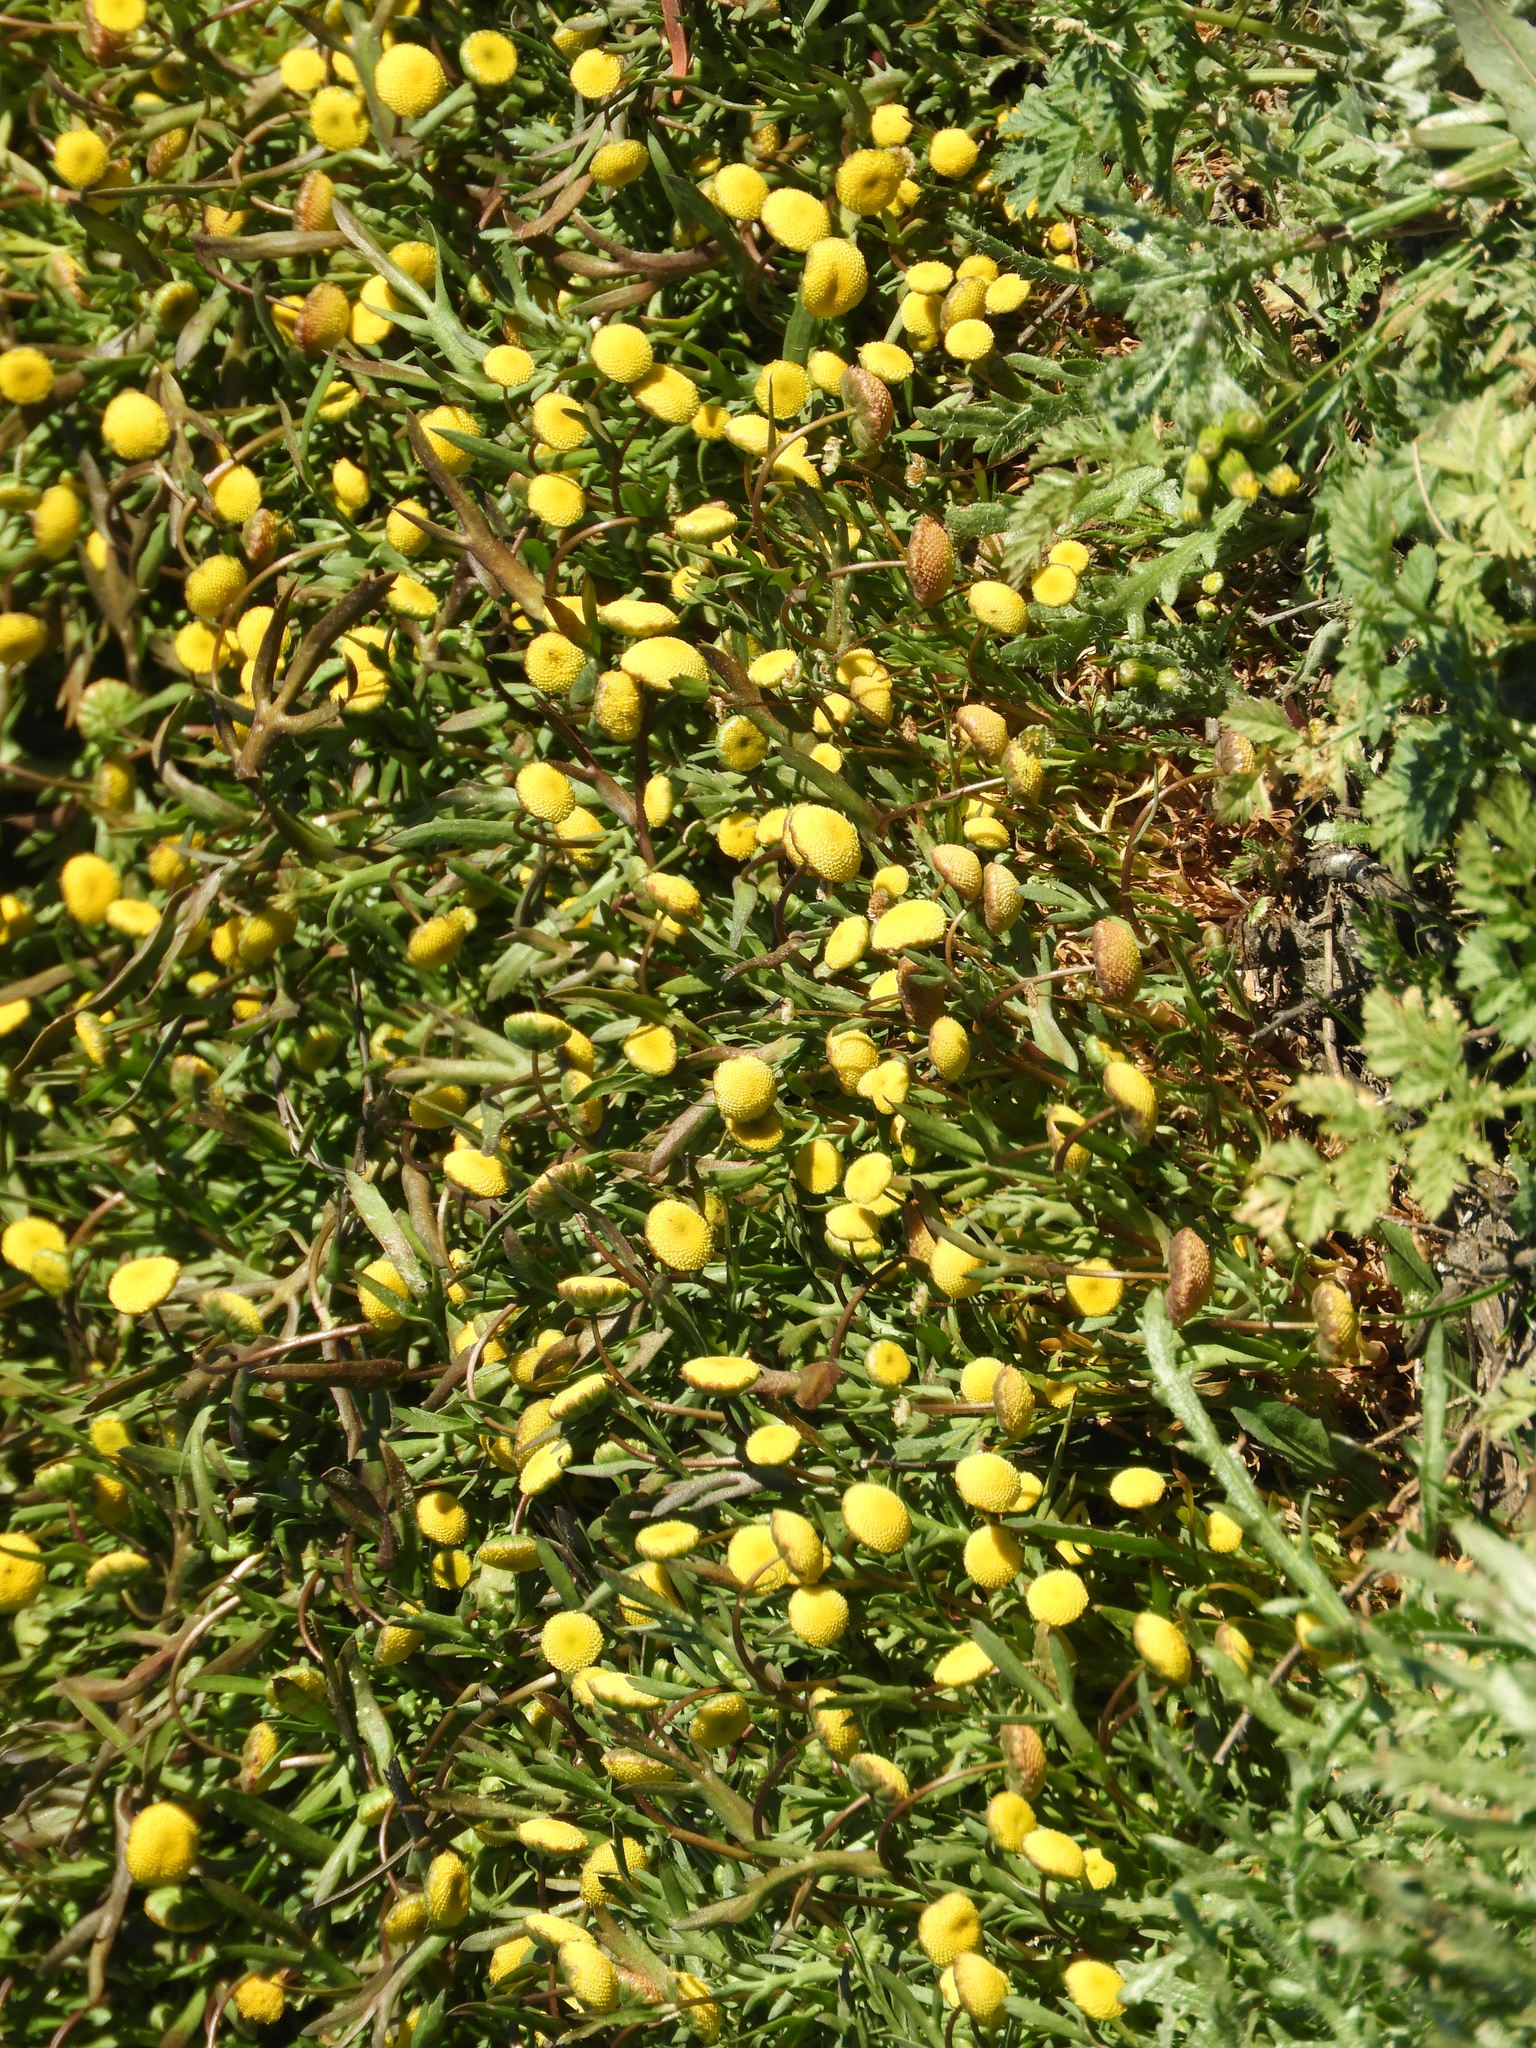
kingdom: Plantae
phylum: Tracheophyta
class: Magnoliopsida
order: Asterales
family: Asteraceae
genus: Cotula
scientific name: Cotula coronopifolia
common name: Buttonweed
